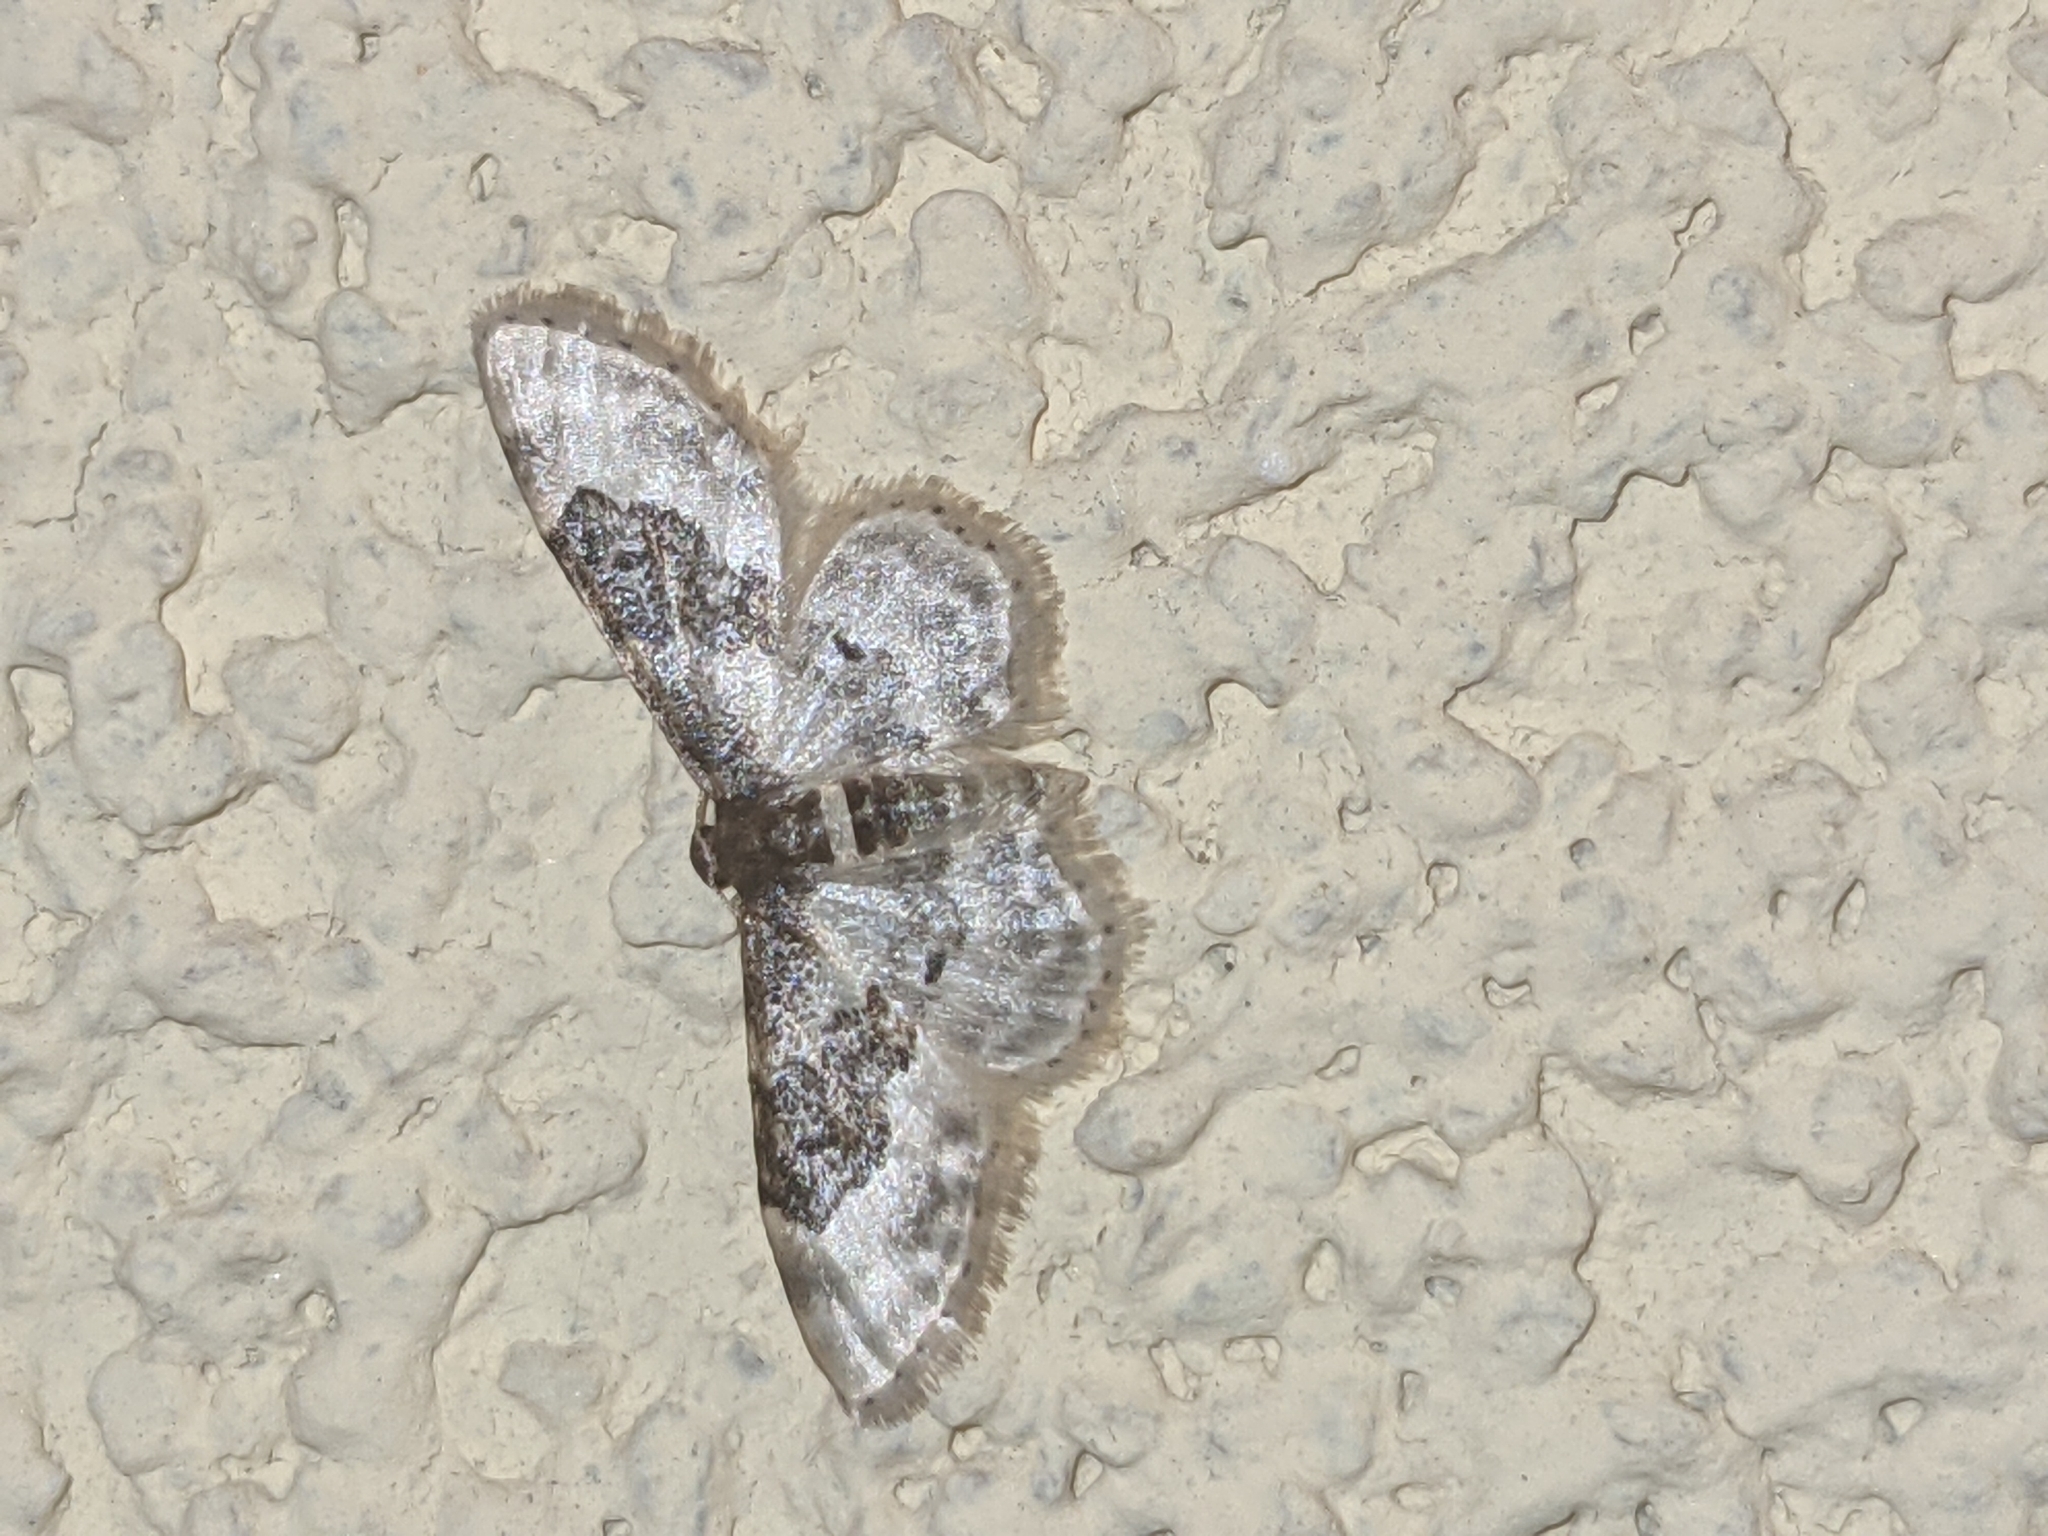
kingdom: Animalia
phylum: Arthropoda
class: Insecta
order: Lepidoptera
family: Geometridae
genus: Idaea
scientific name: Idaea rusticata
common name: Least carpet
